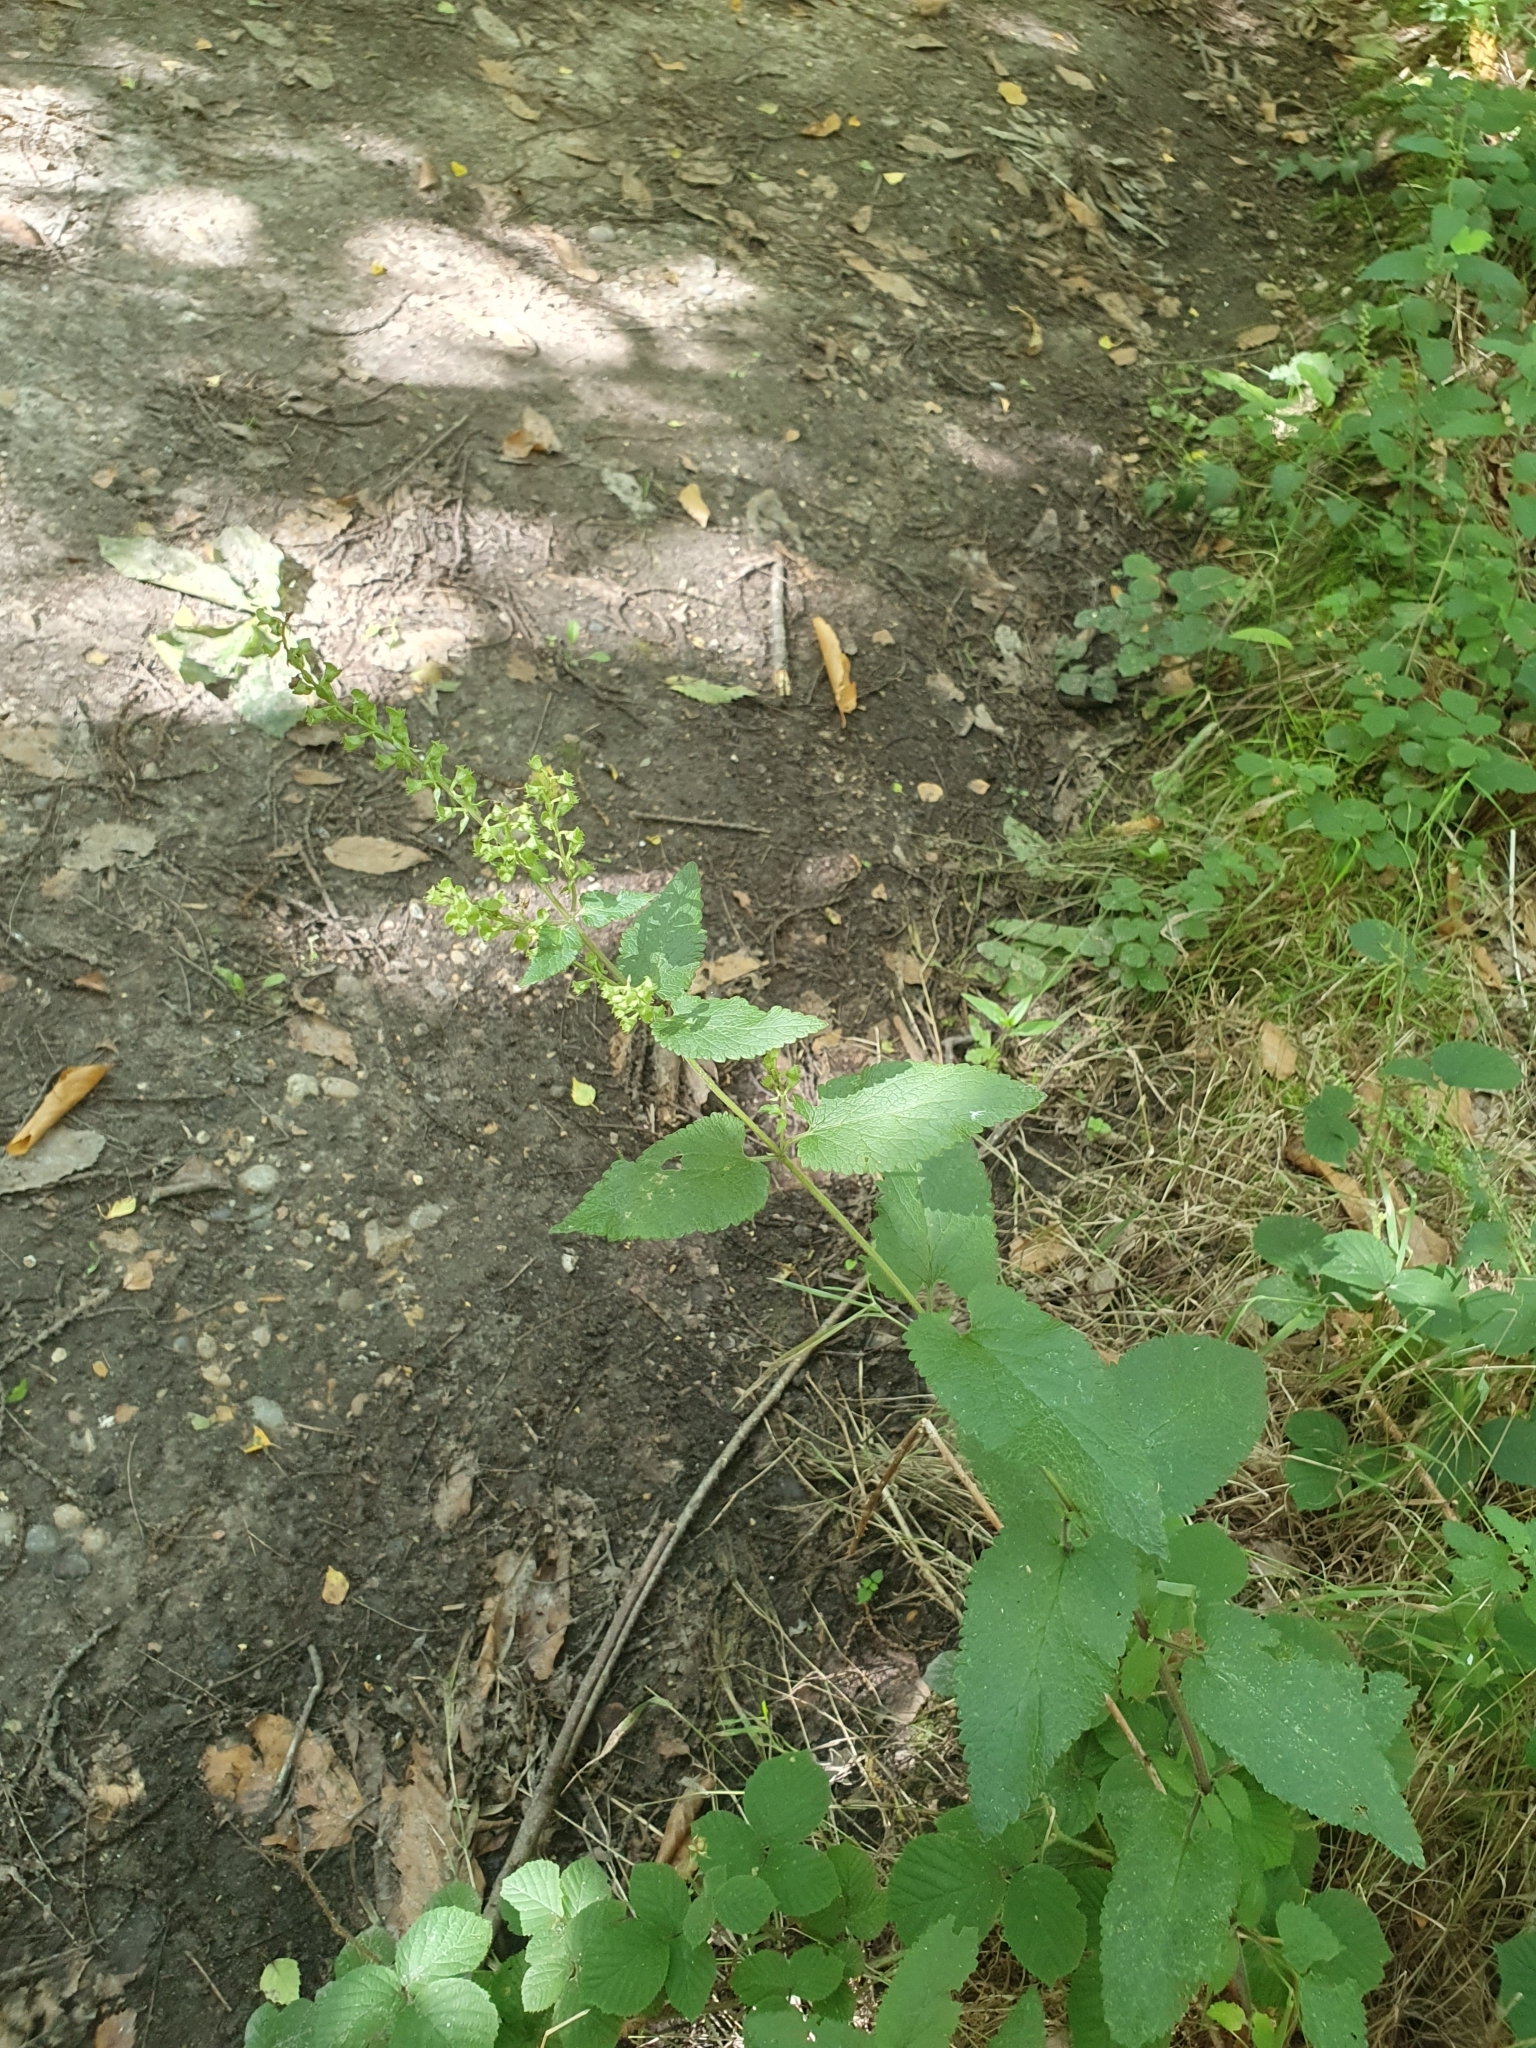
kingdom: Plantae
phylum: Tracheophyta
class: Magnoliopsida
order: Lamiales
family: Lamiaceae
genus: Teucrium
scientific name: Teucrium scorodonia
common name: Woodland germander
